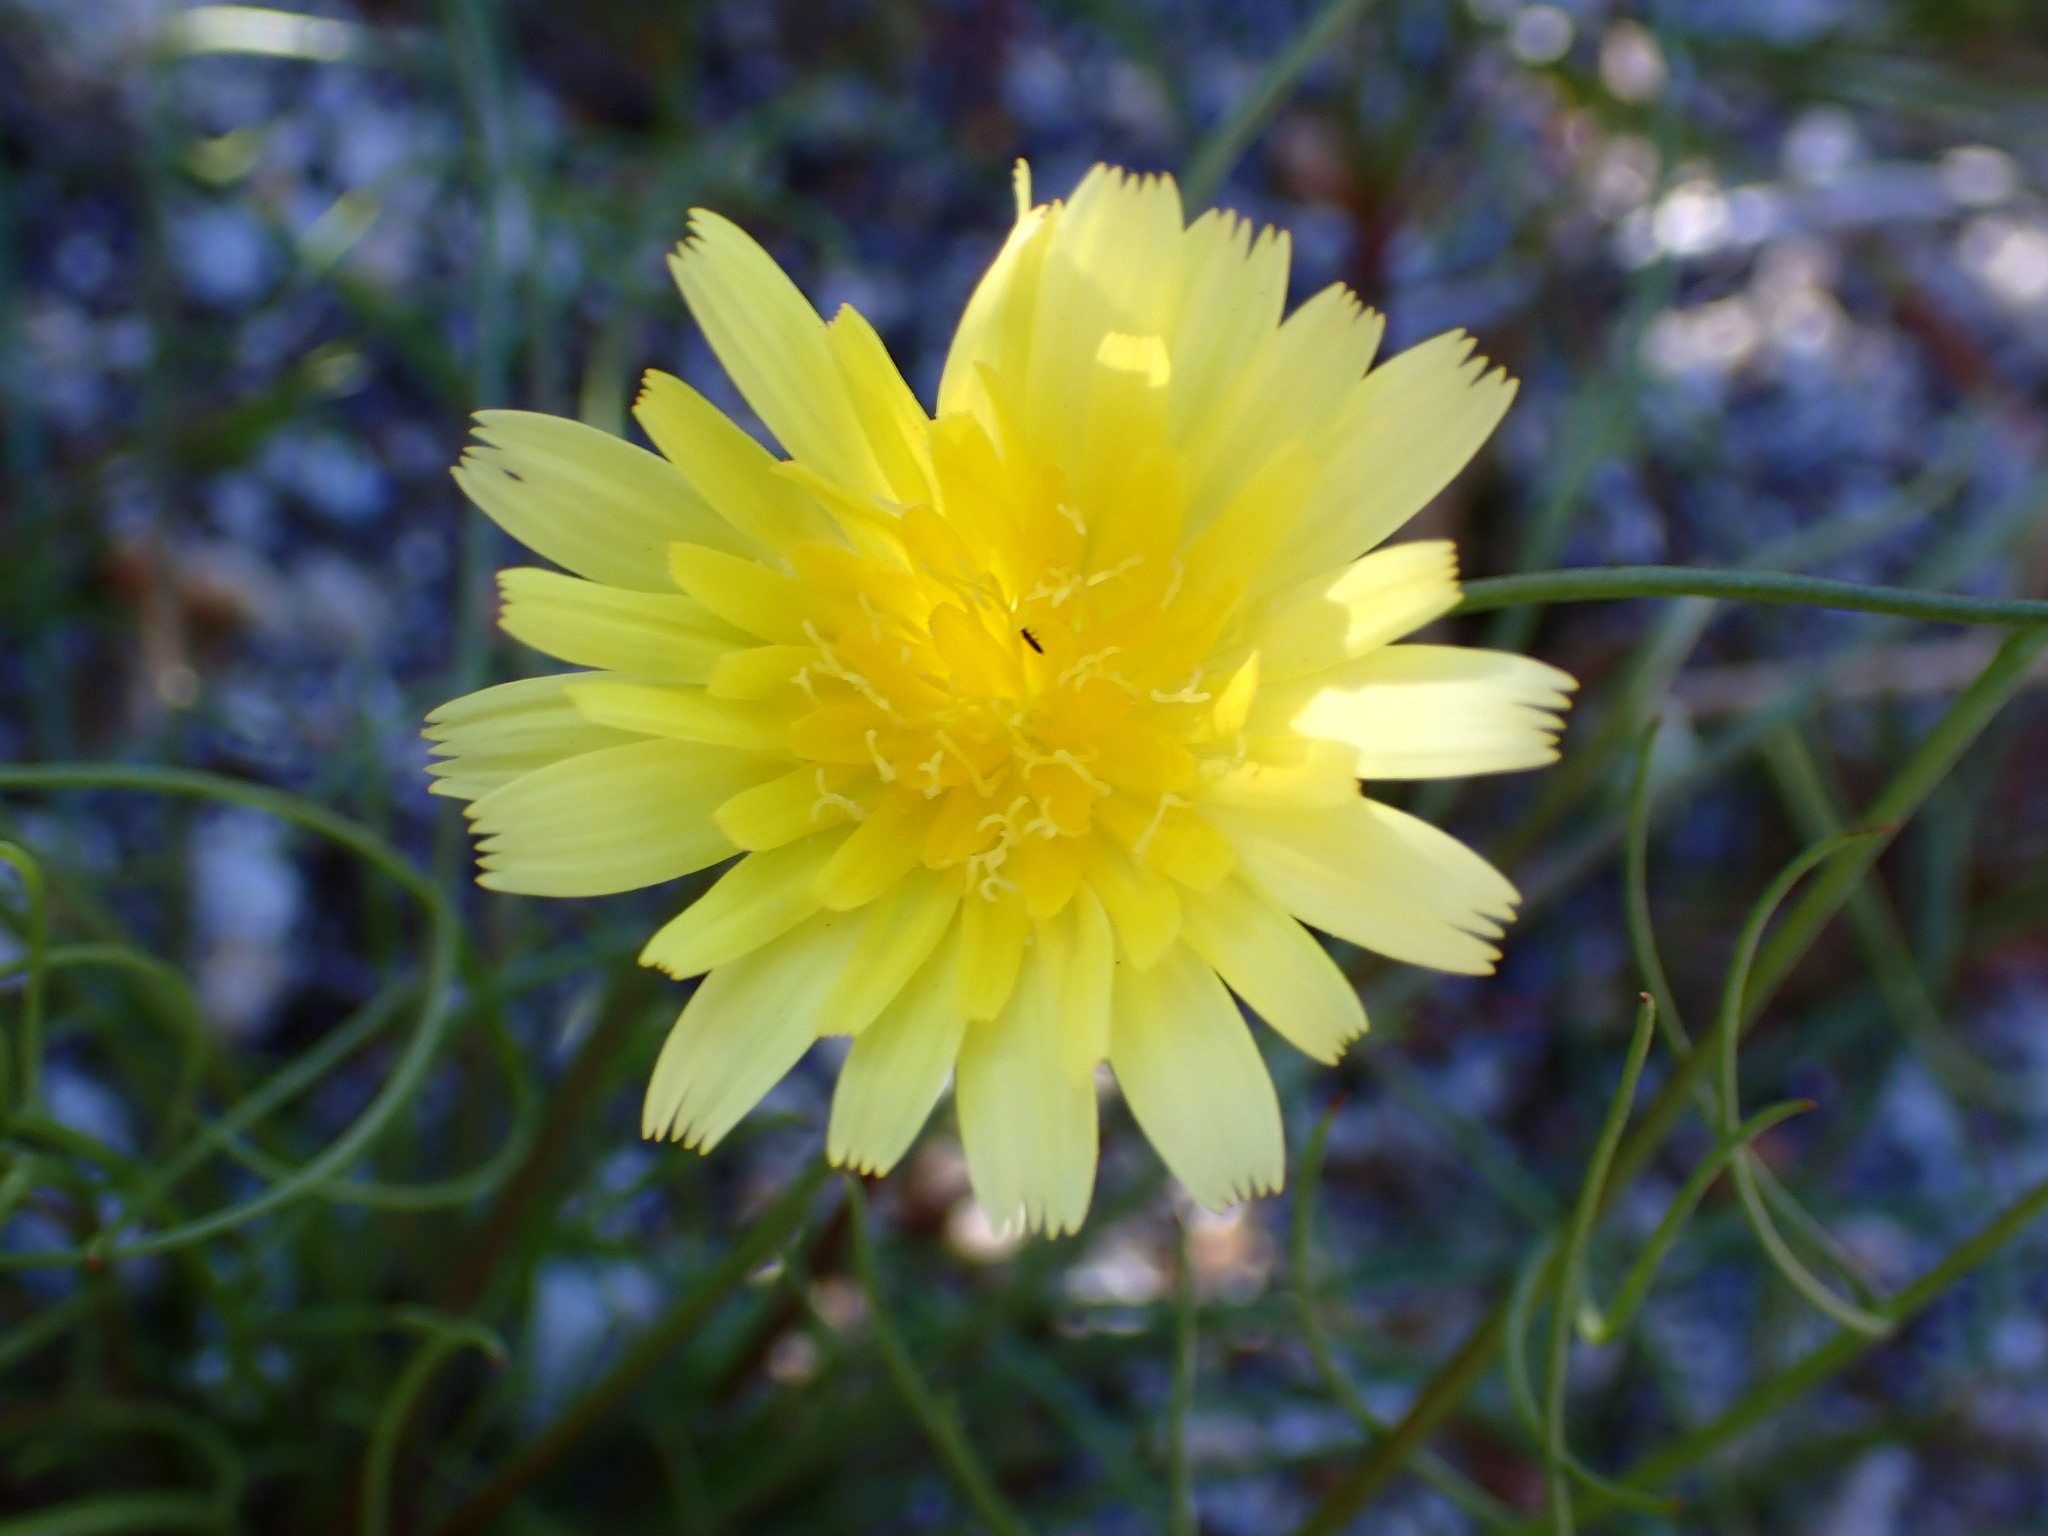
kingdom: Plantae
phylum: Tracheophyta
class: Magnoliopsida
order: Asterales
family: Asteraceae
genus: Malacothrix
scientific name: Malacothrix glabrata
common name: Smooth desert-dandelion
